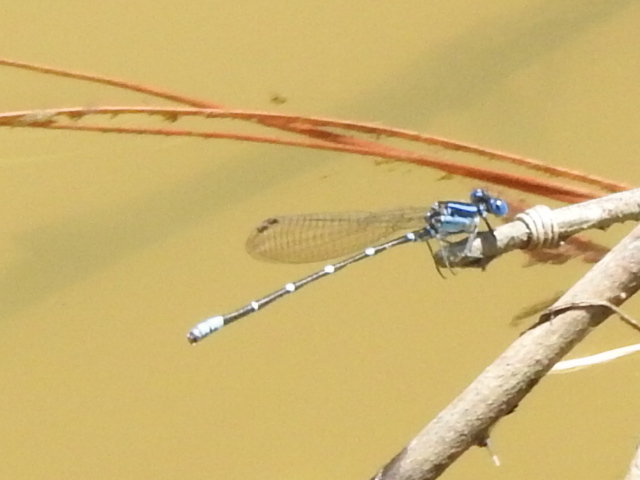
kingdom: Animalia
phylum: Arthropoda
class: Insecta
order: Odonata
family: Coenagrionidae
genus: Argia
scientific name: Argia sedula
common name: Blue-ringed dancer
